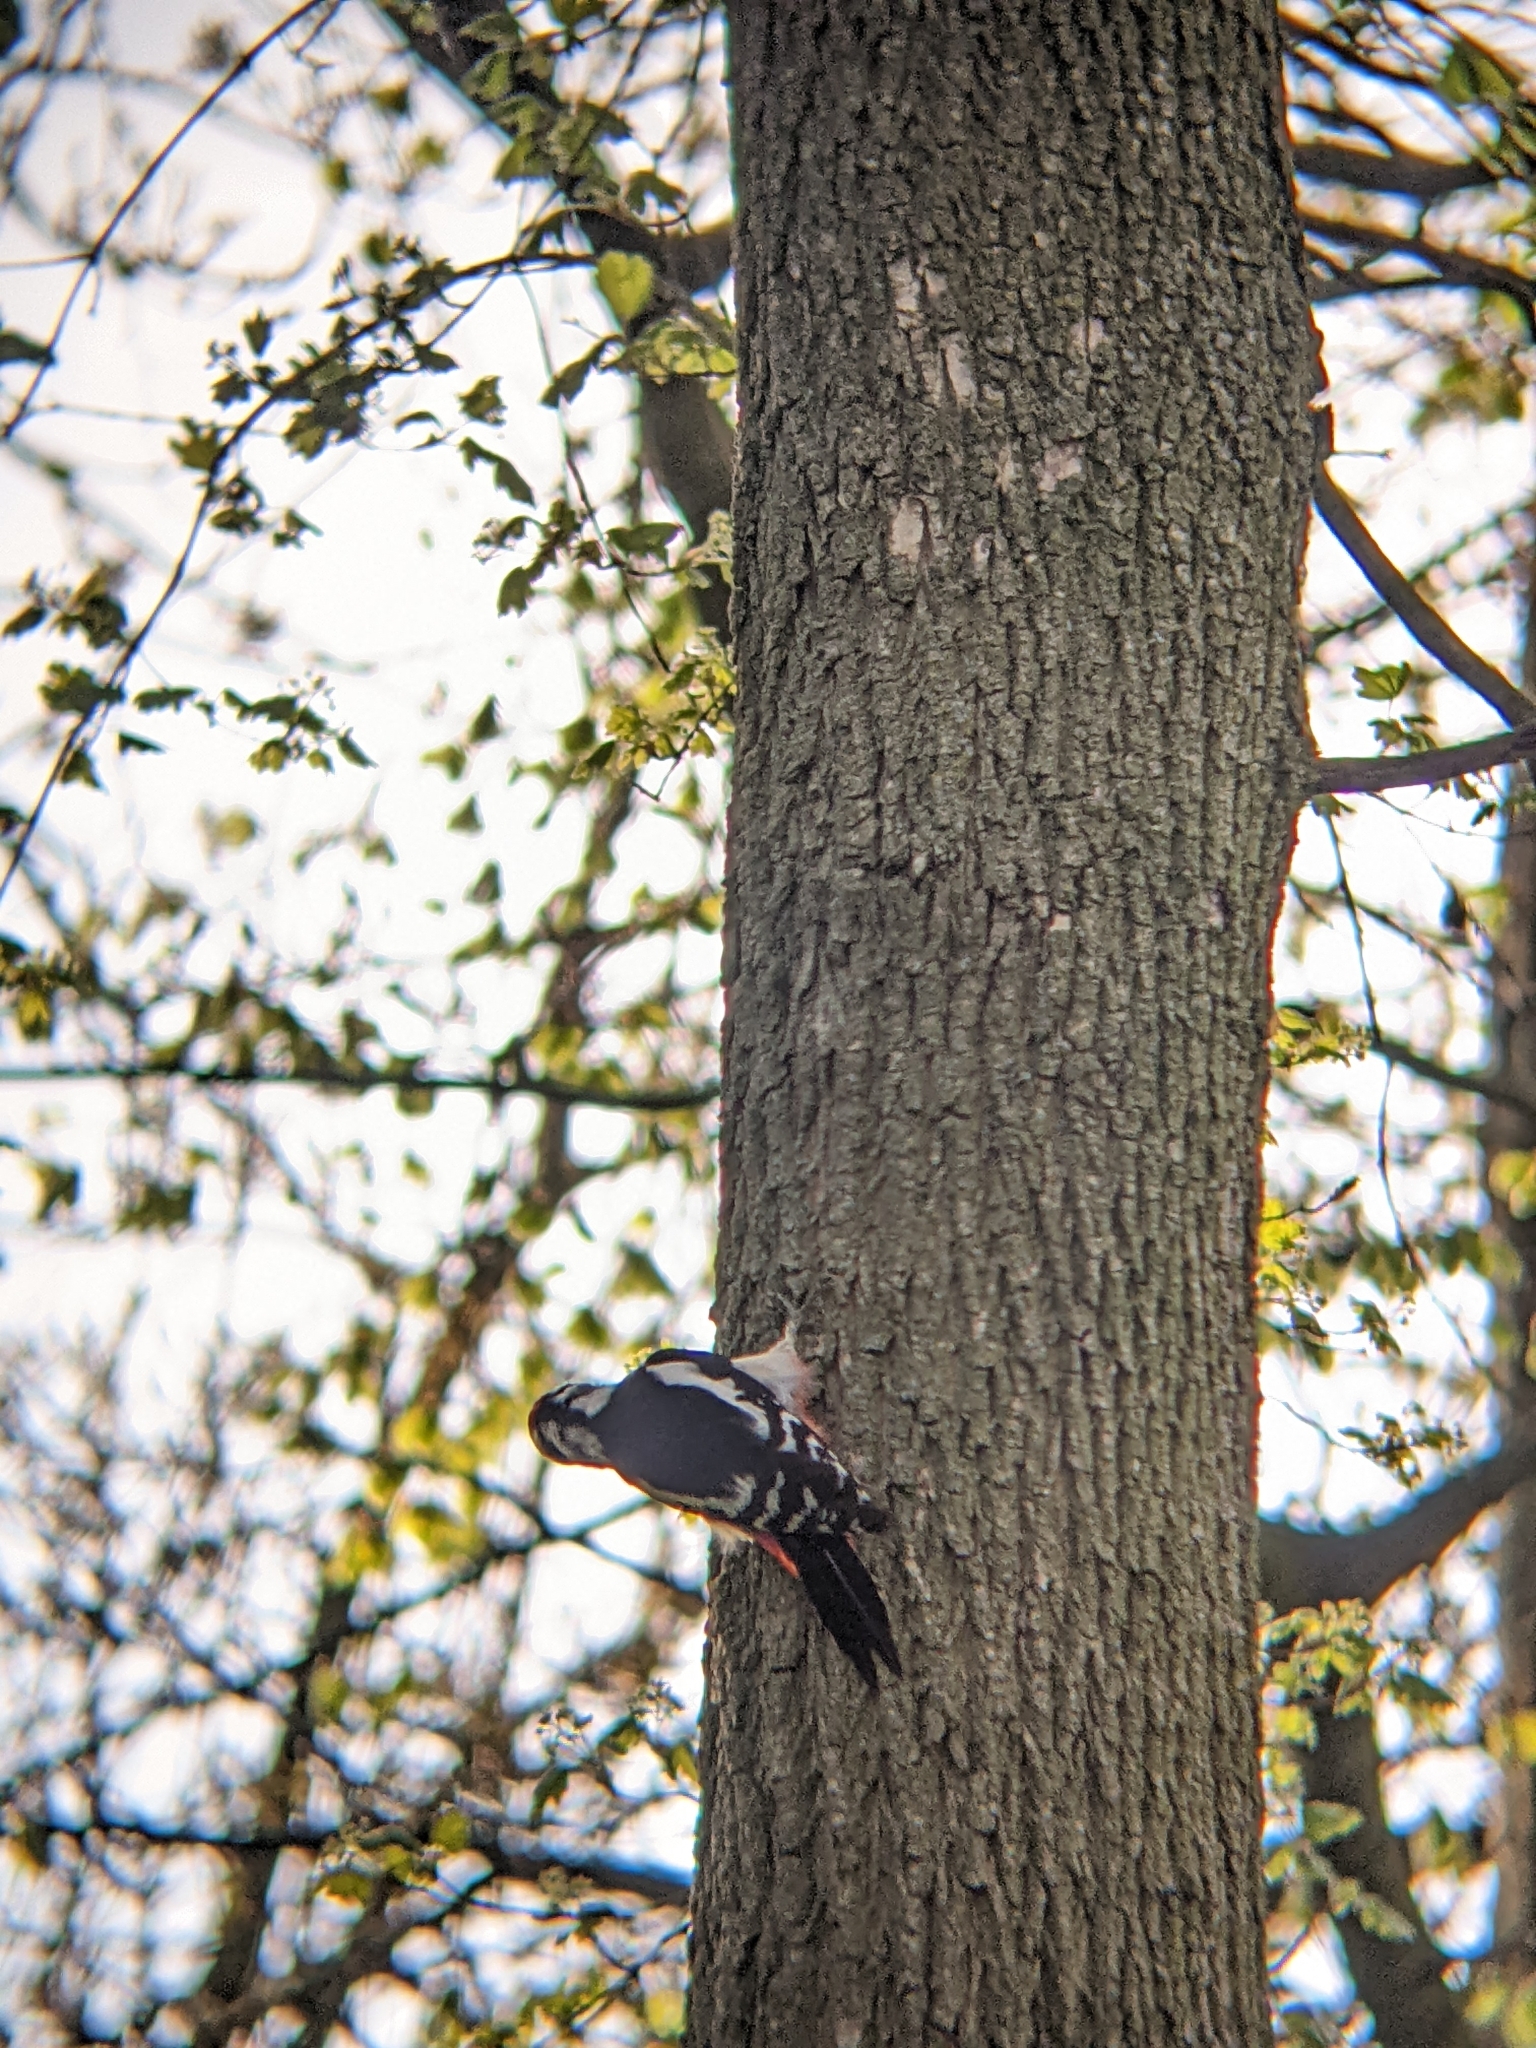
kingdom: Animalia
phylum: Chordata
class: Aves
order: Piciformes
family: Picidae
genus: Dendrocopos
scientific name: Dendrocopos major
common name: Great spotted woodpecker
